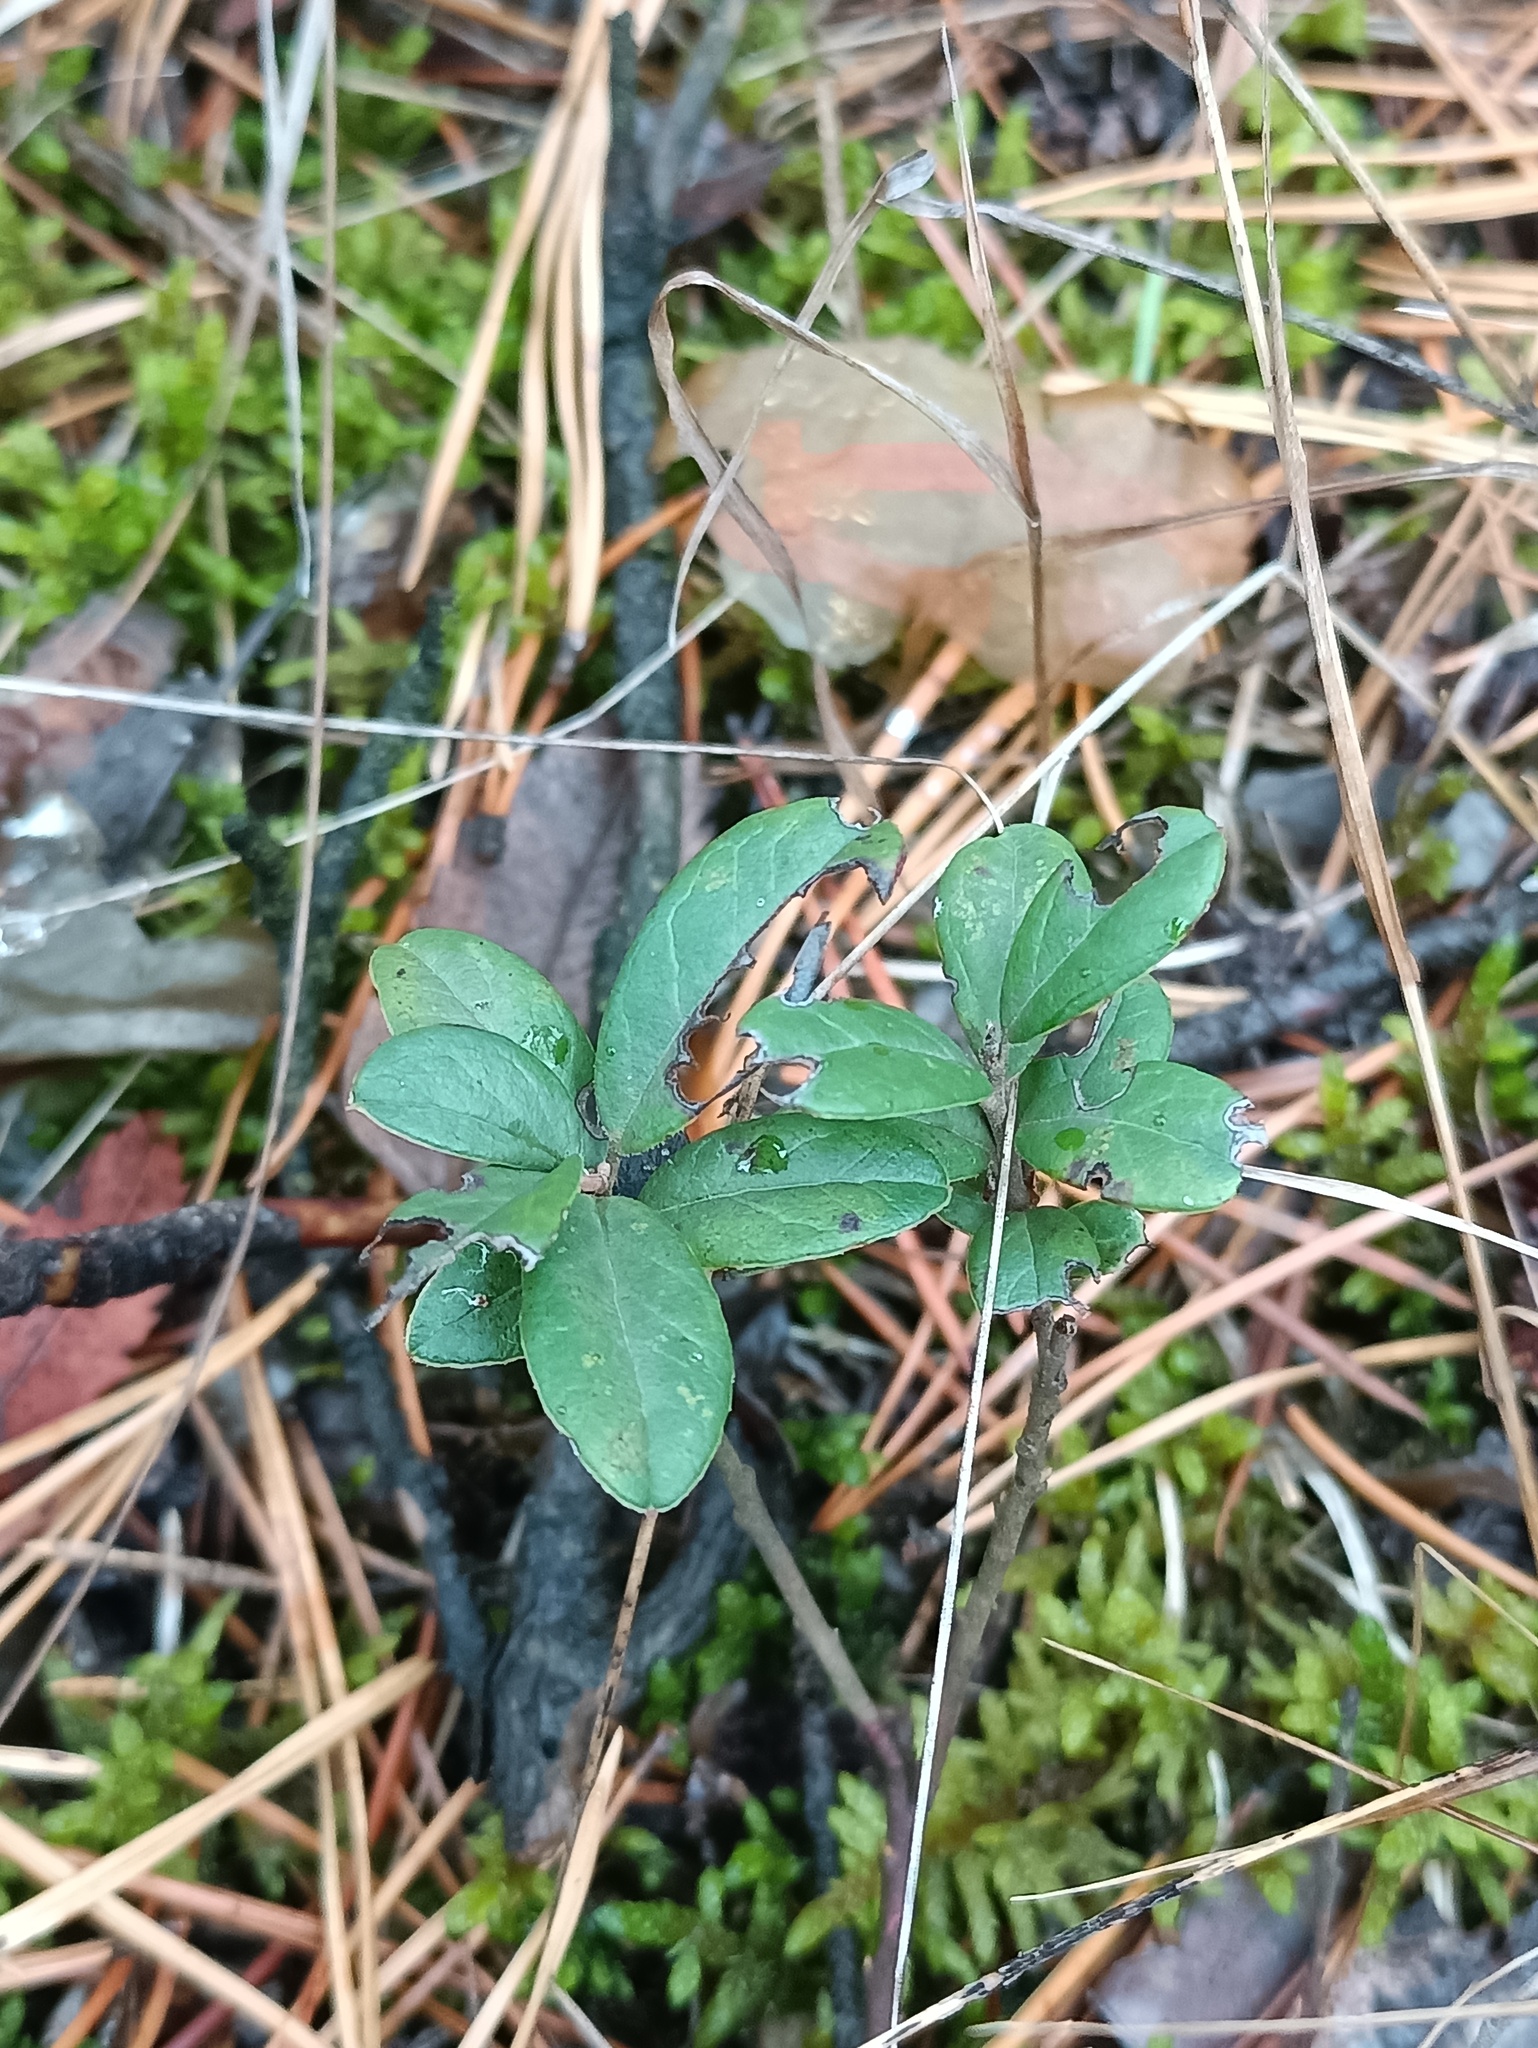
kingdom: Plantae
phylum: Tracheophyta
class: Magnoliopsida
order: Ericales
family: Ericaceae
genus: Vaccinium
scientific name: Vaccinium vitis-idaea
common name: Cowberry
